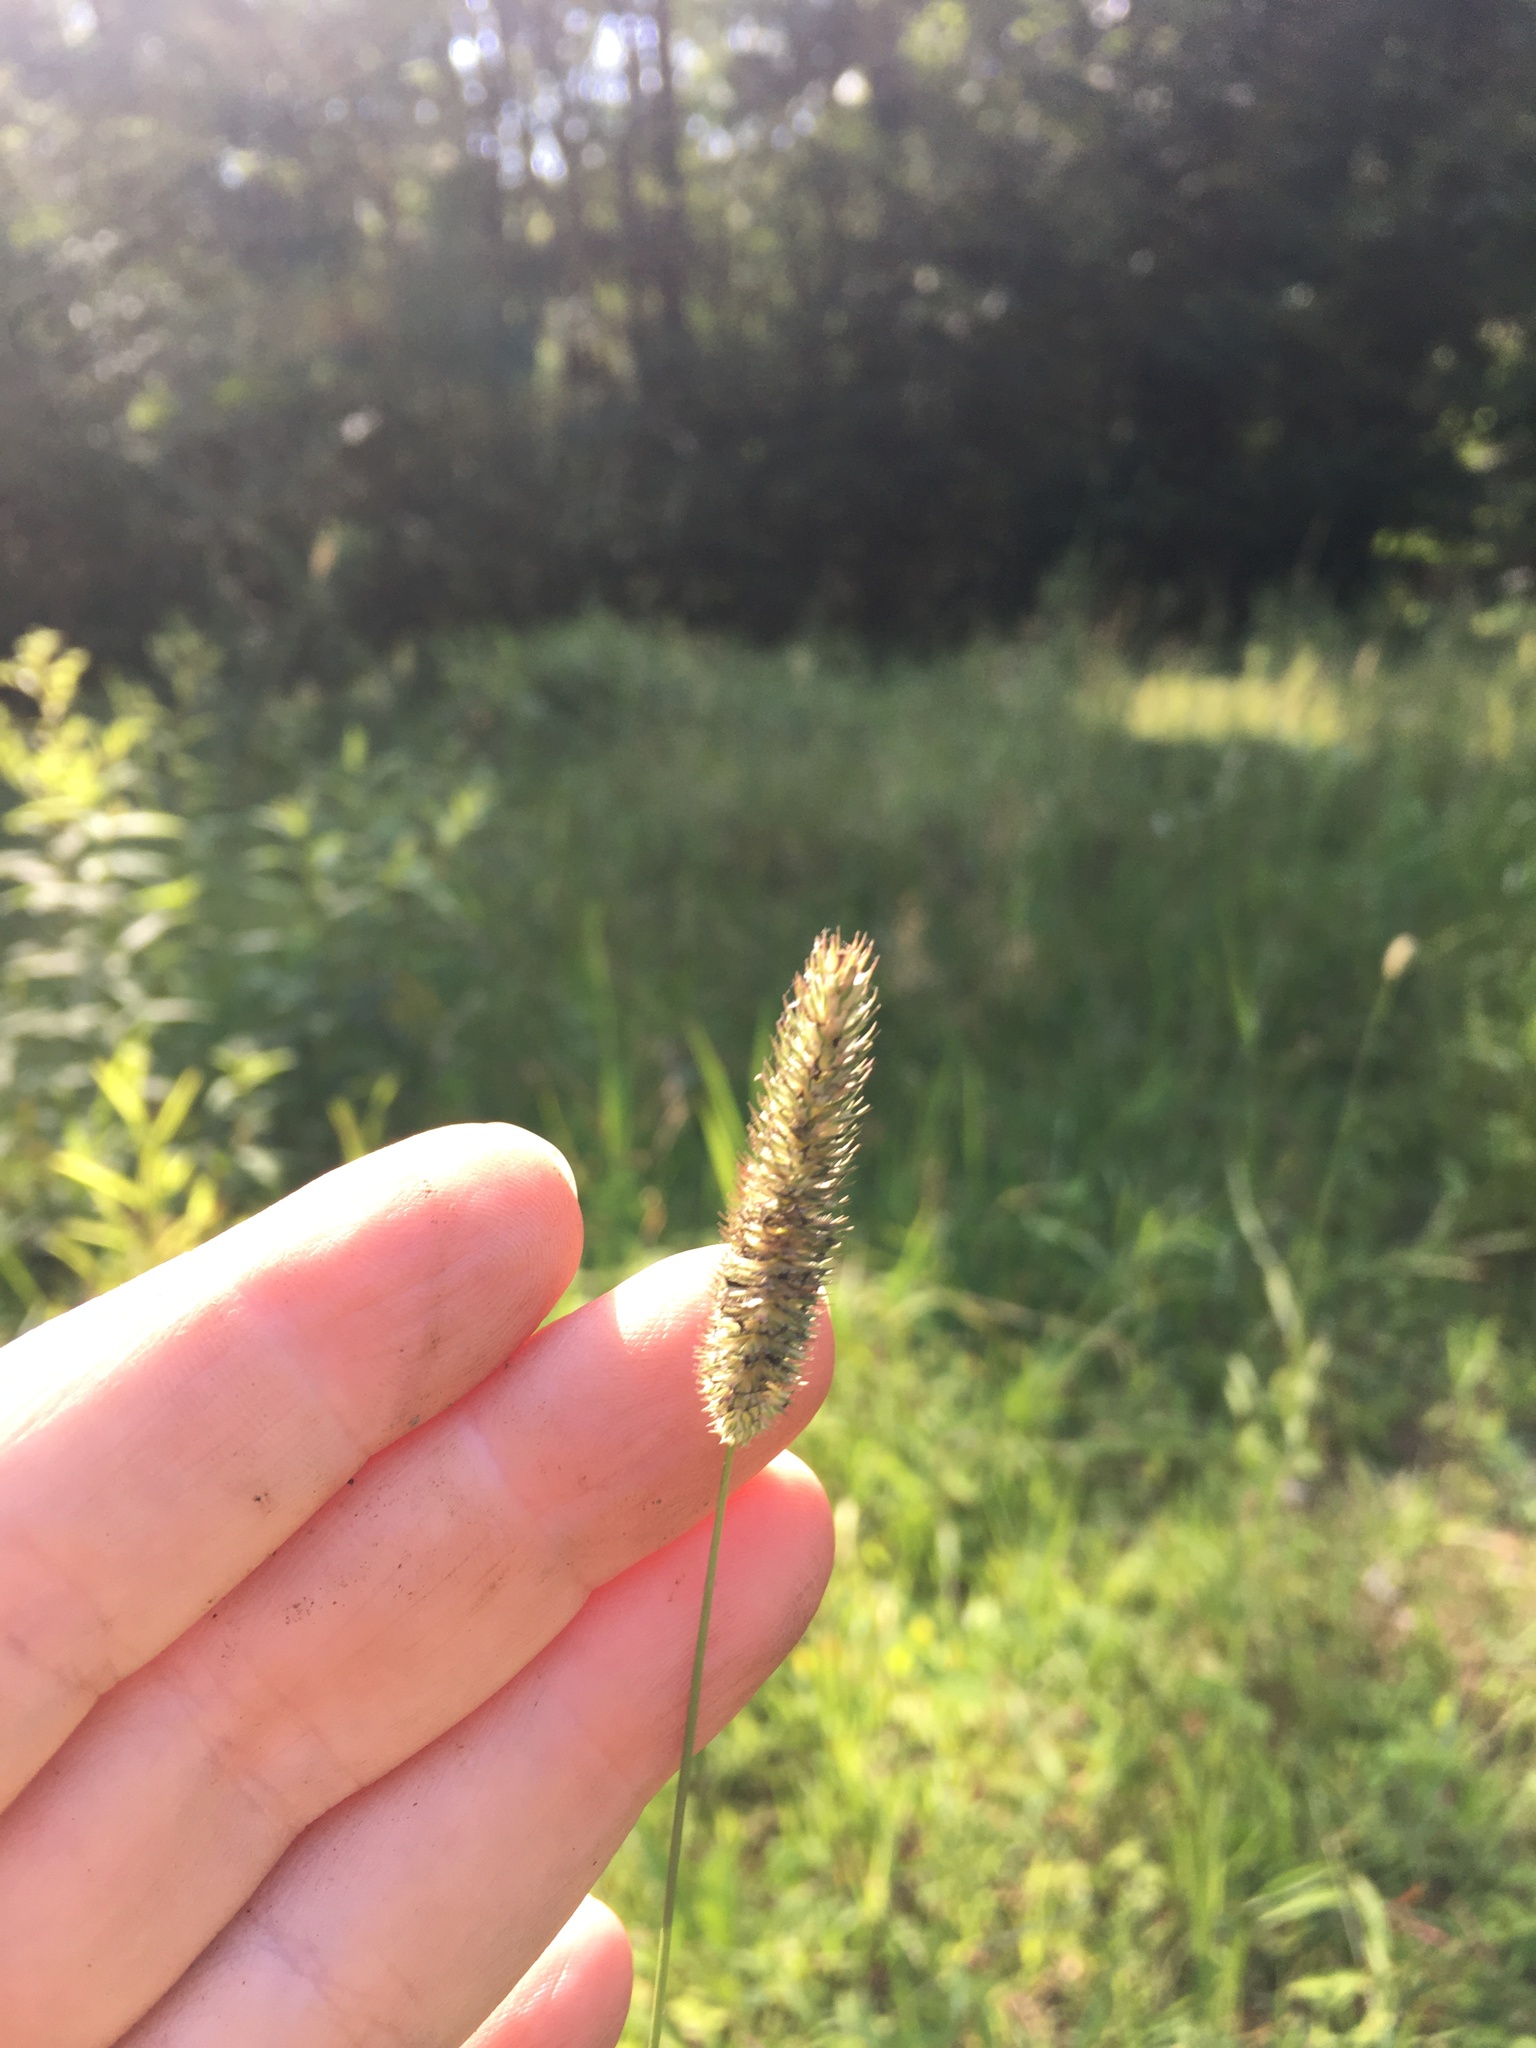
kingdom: Plantae
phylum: Tracheophyta
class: Liliopsida
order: Poales
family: Poaceae
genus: Phleum
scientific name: Phleum pratense
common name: Timothy grass
